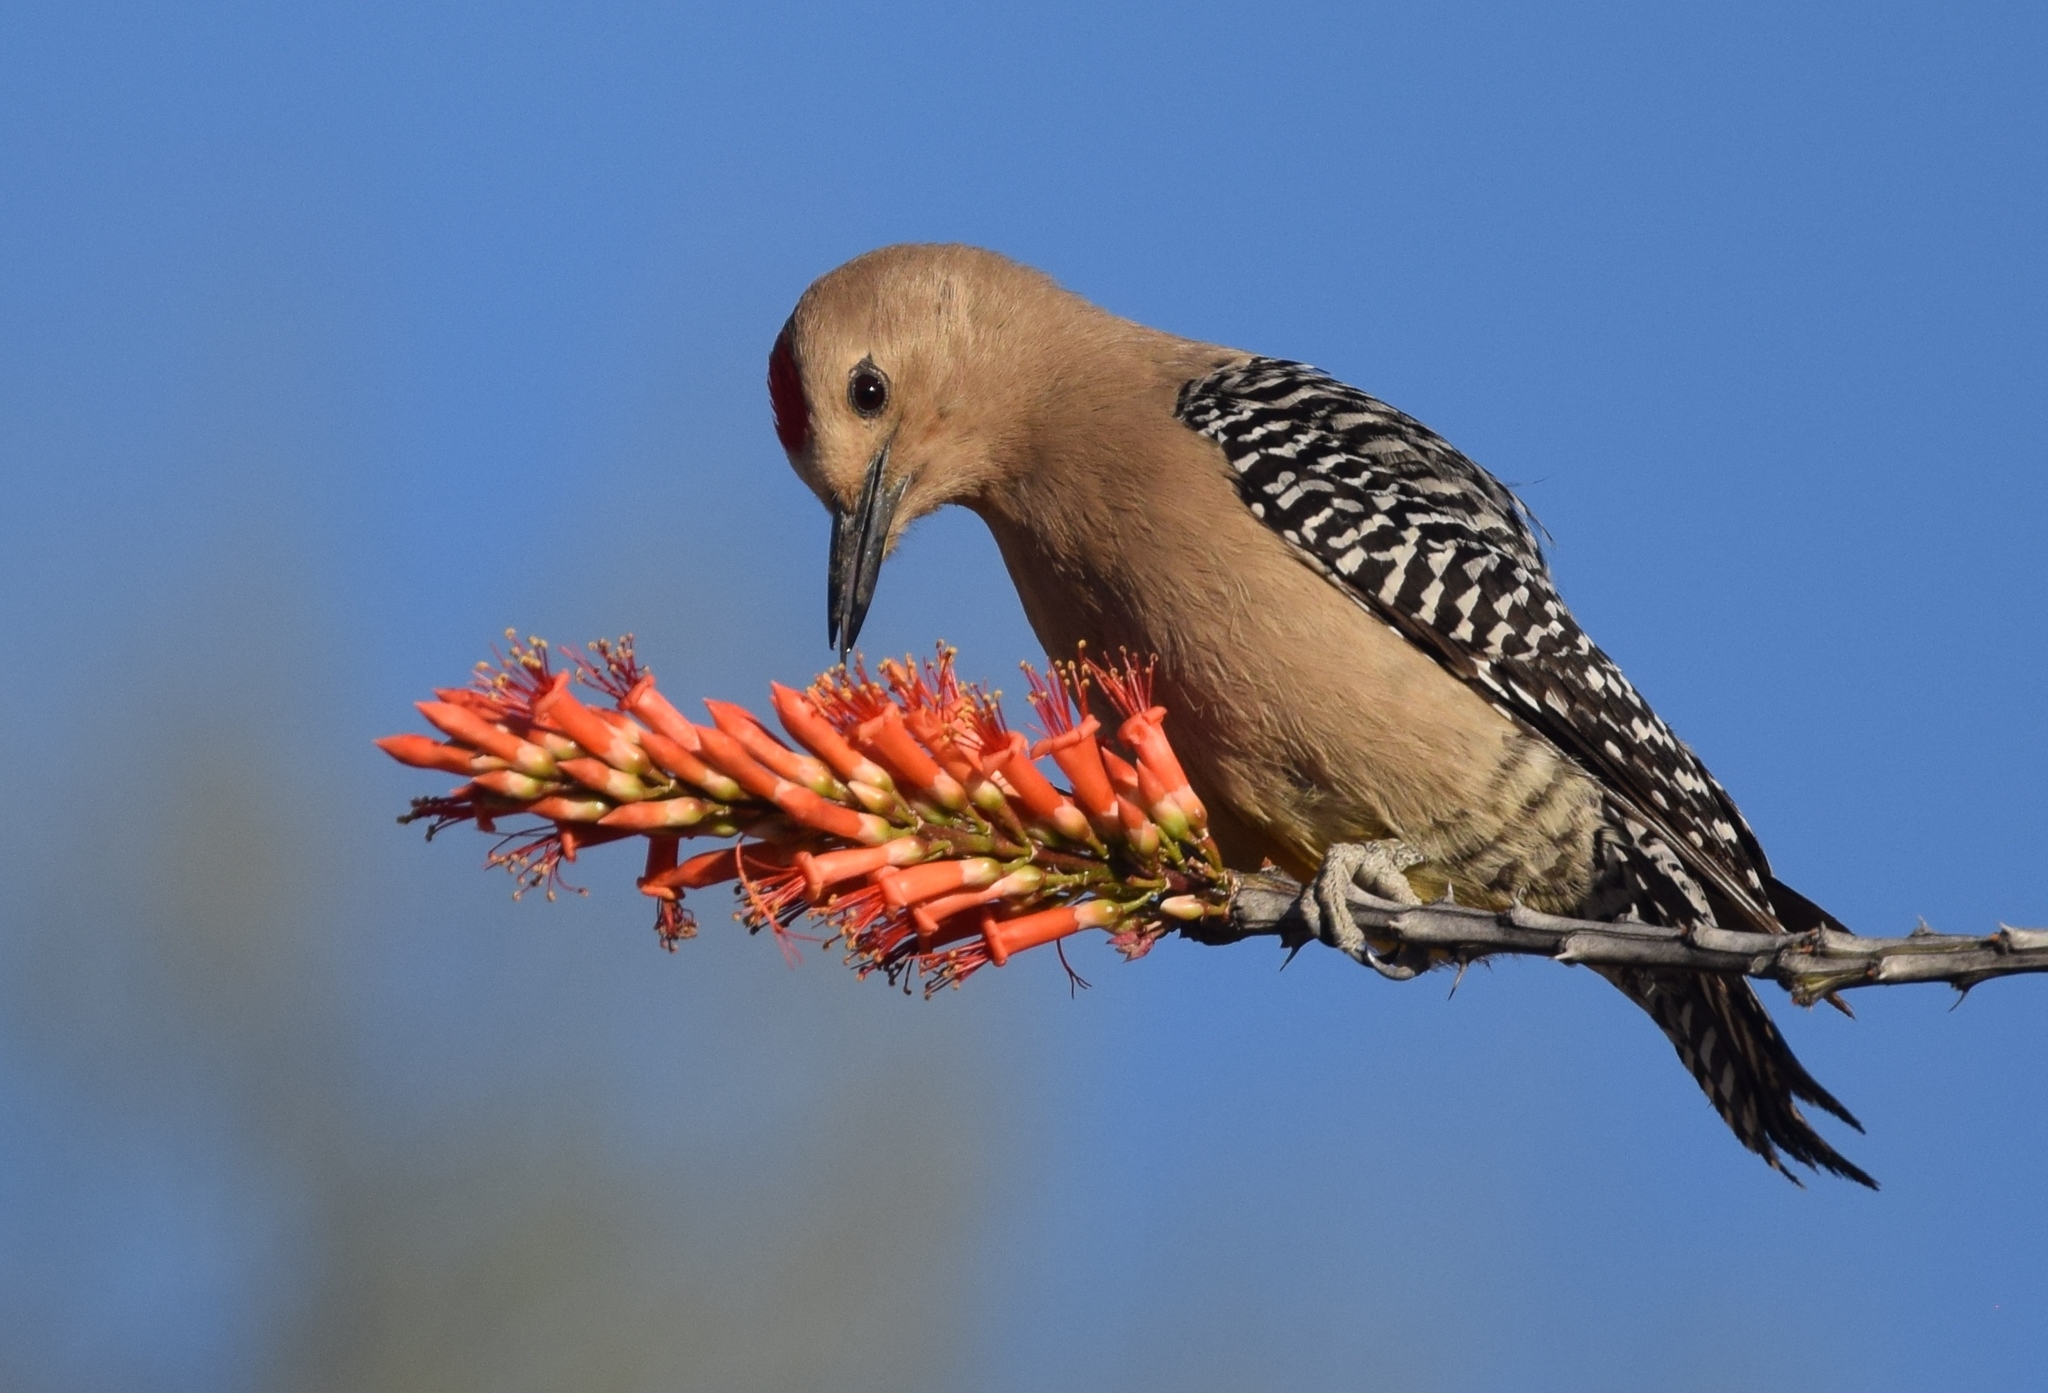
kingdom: Animalia
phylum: Chordata
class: Aves
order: Piciformes
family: Picidae
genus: Melanerpes
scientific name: Melanerpes uropygialis
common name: Gila woodpecker
